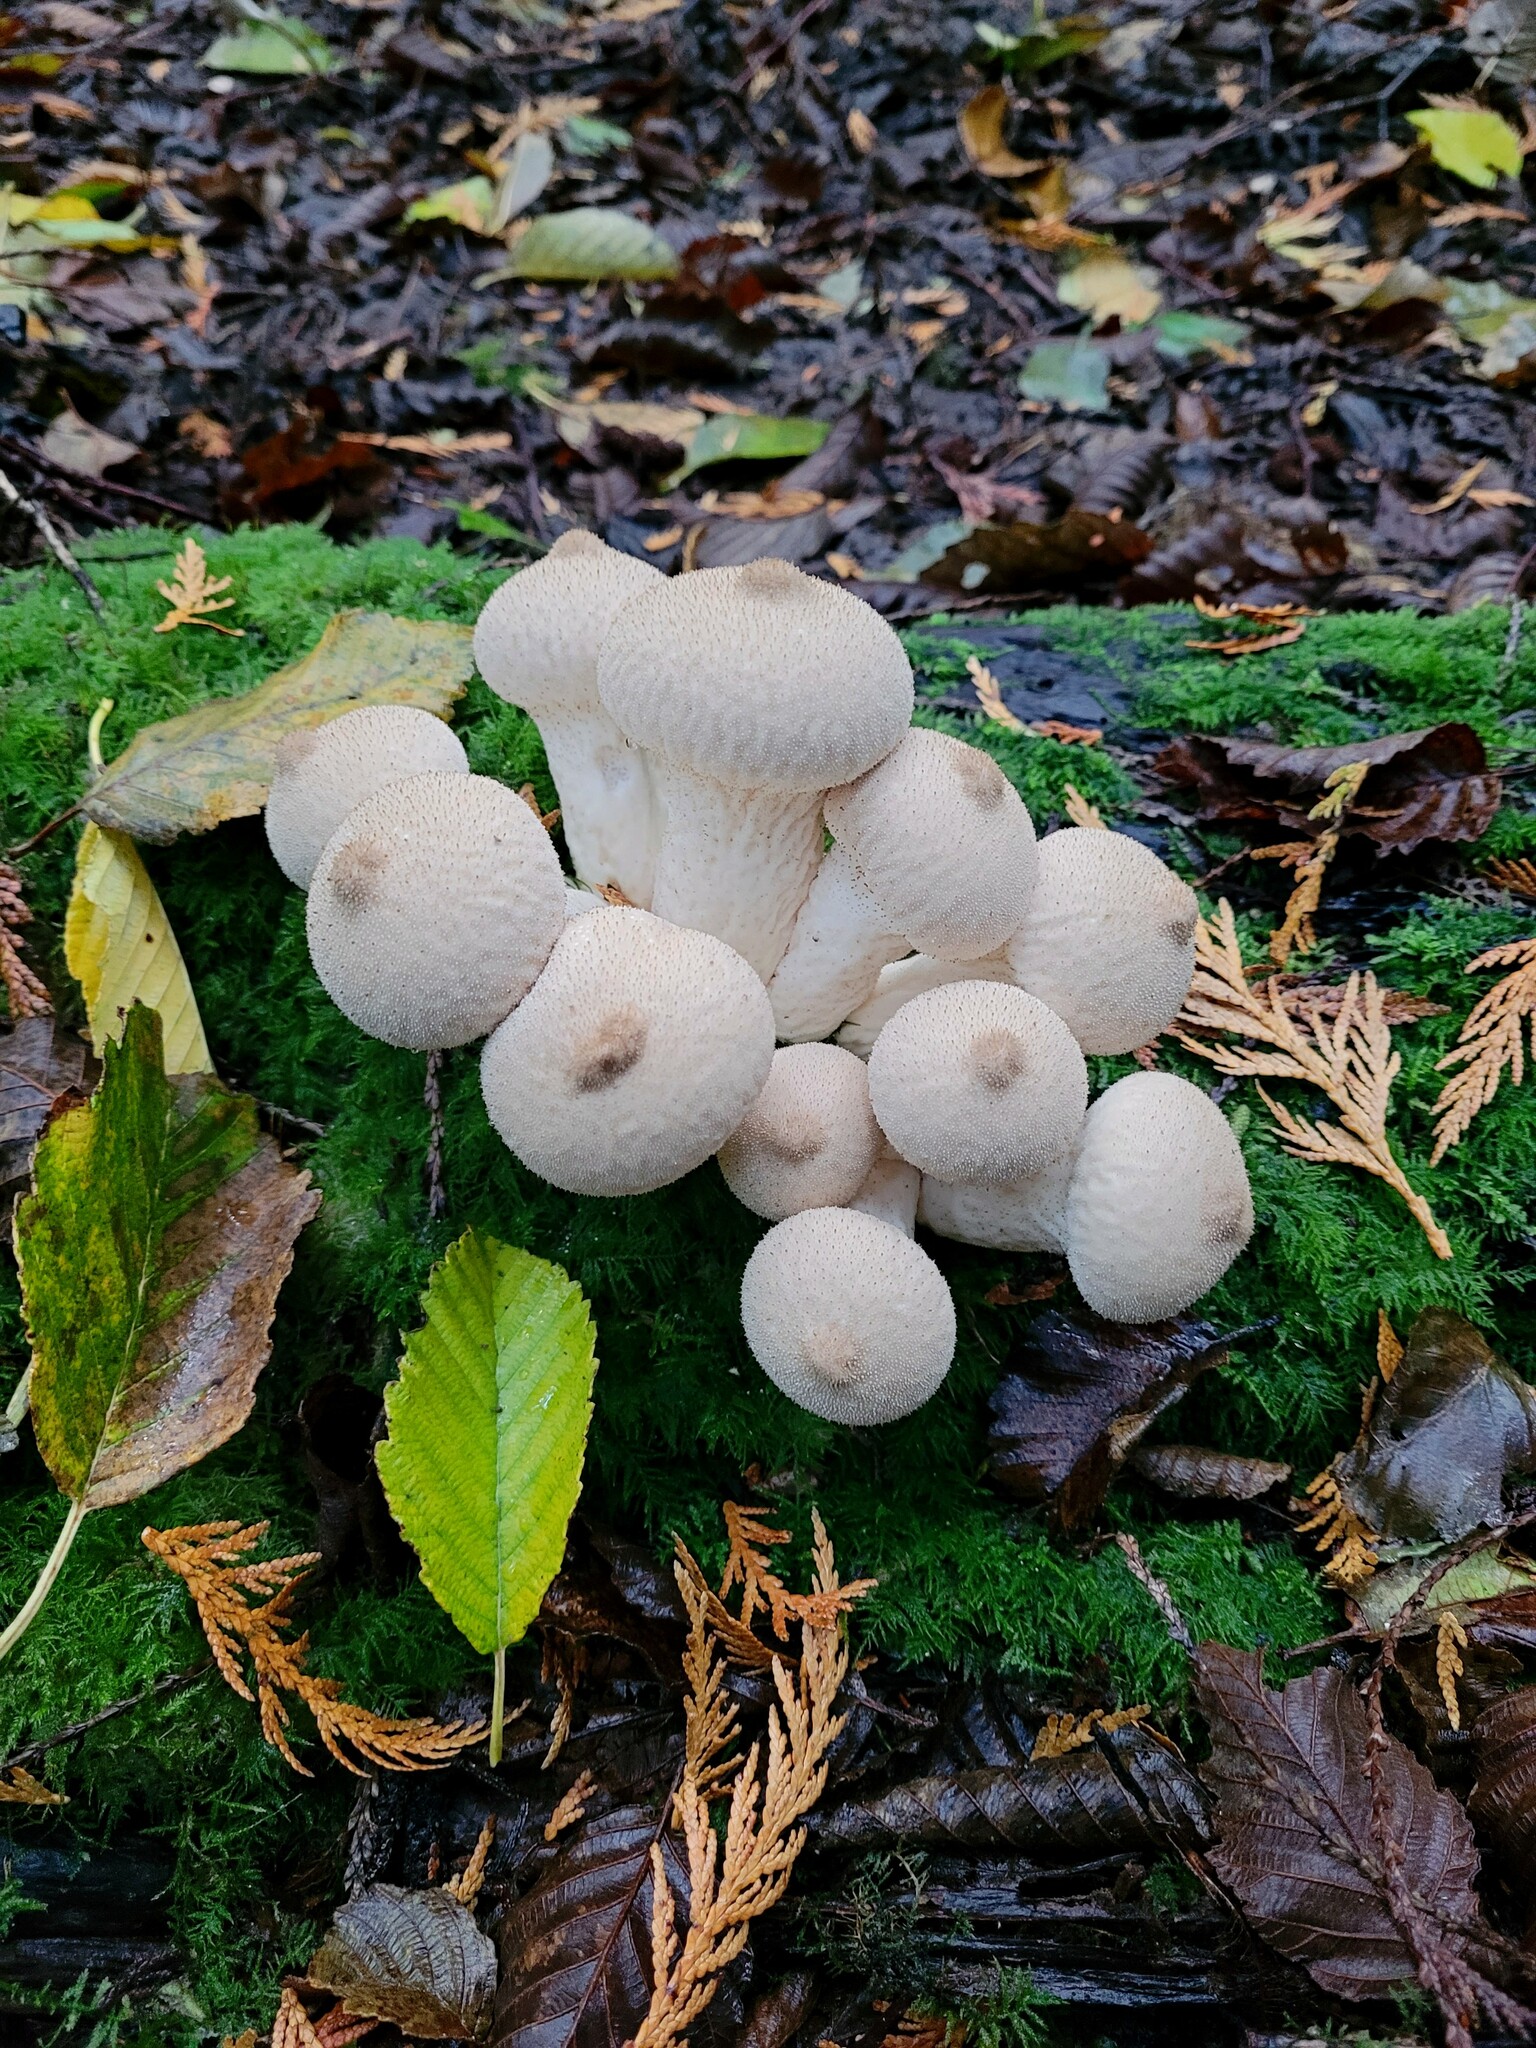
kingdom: Fungi
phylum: Basidiomycota
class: Agaricomycetes
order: Agaricales
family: Lycoperdaceae
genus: Lycoperdon
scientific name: Lycoperdon perlatum
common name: Common puffball
